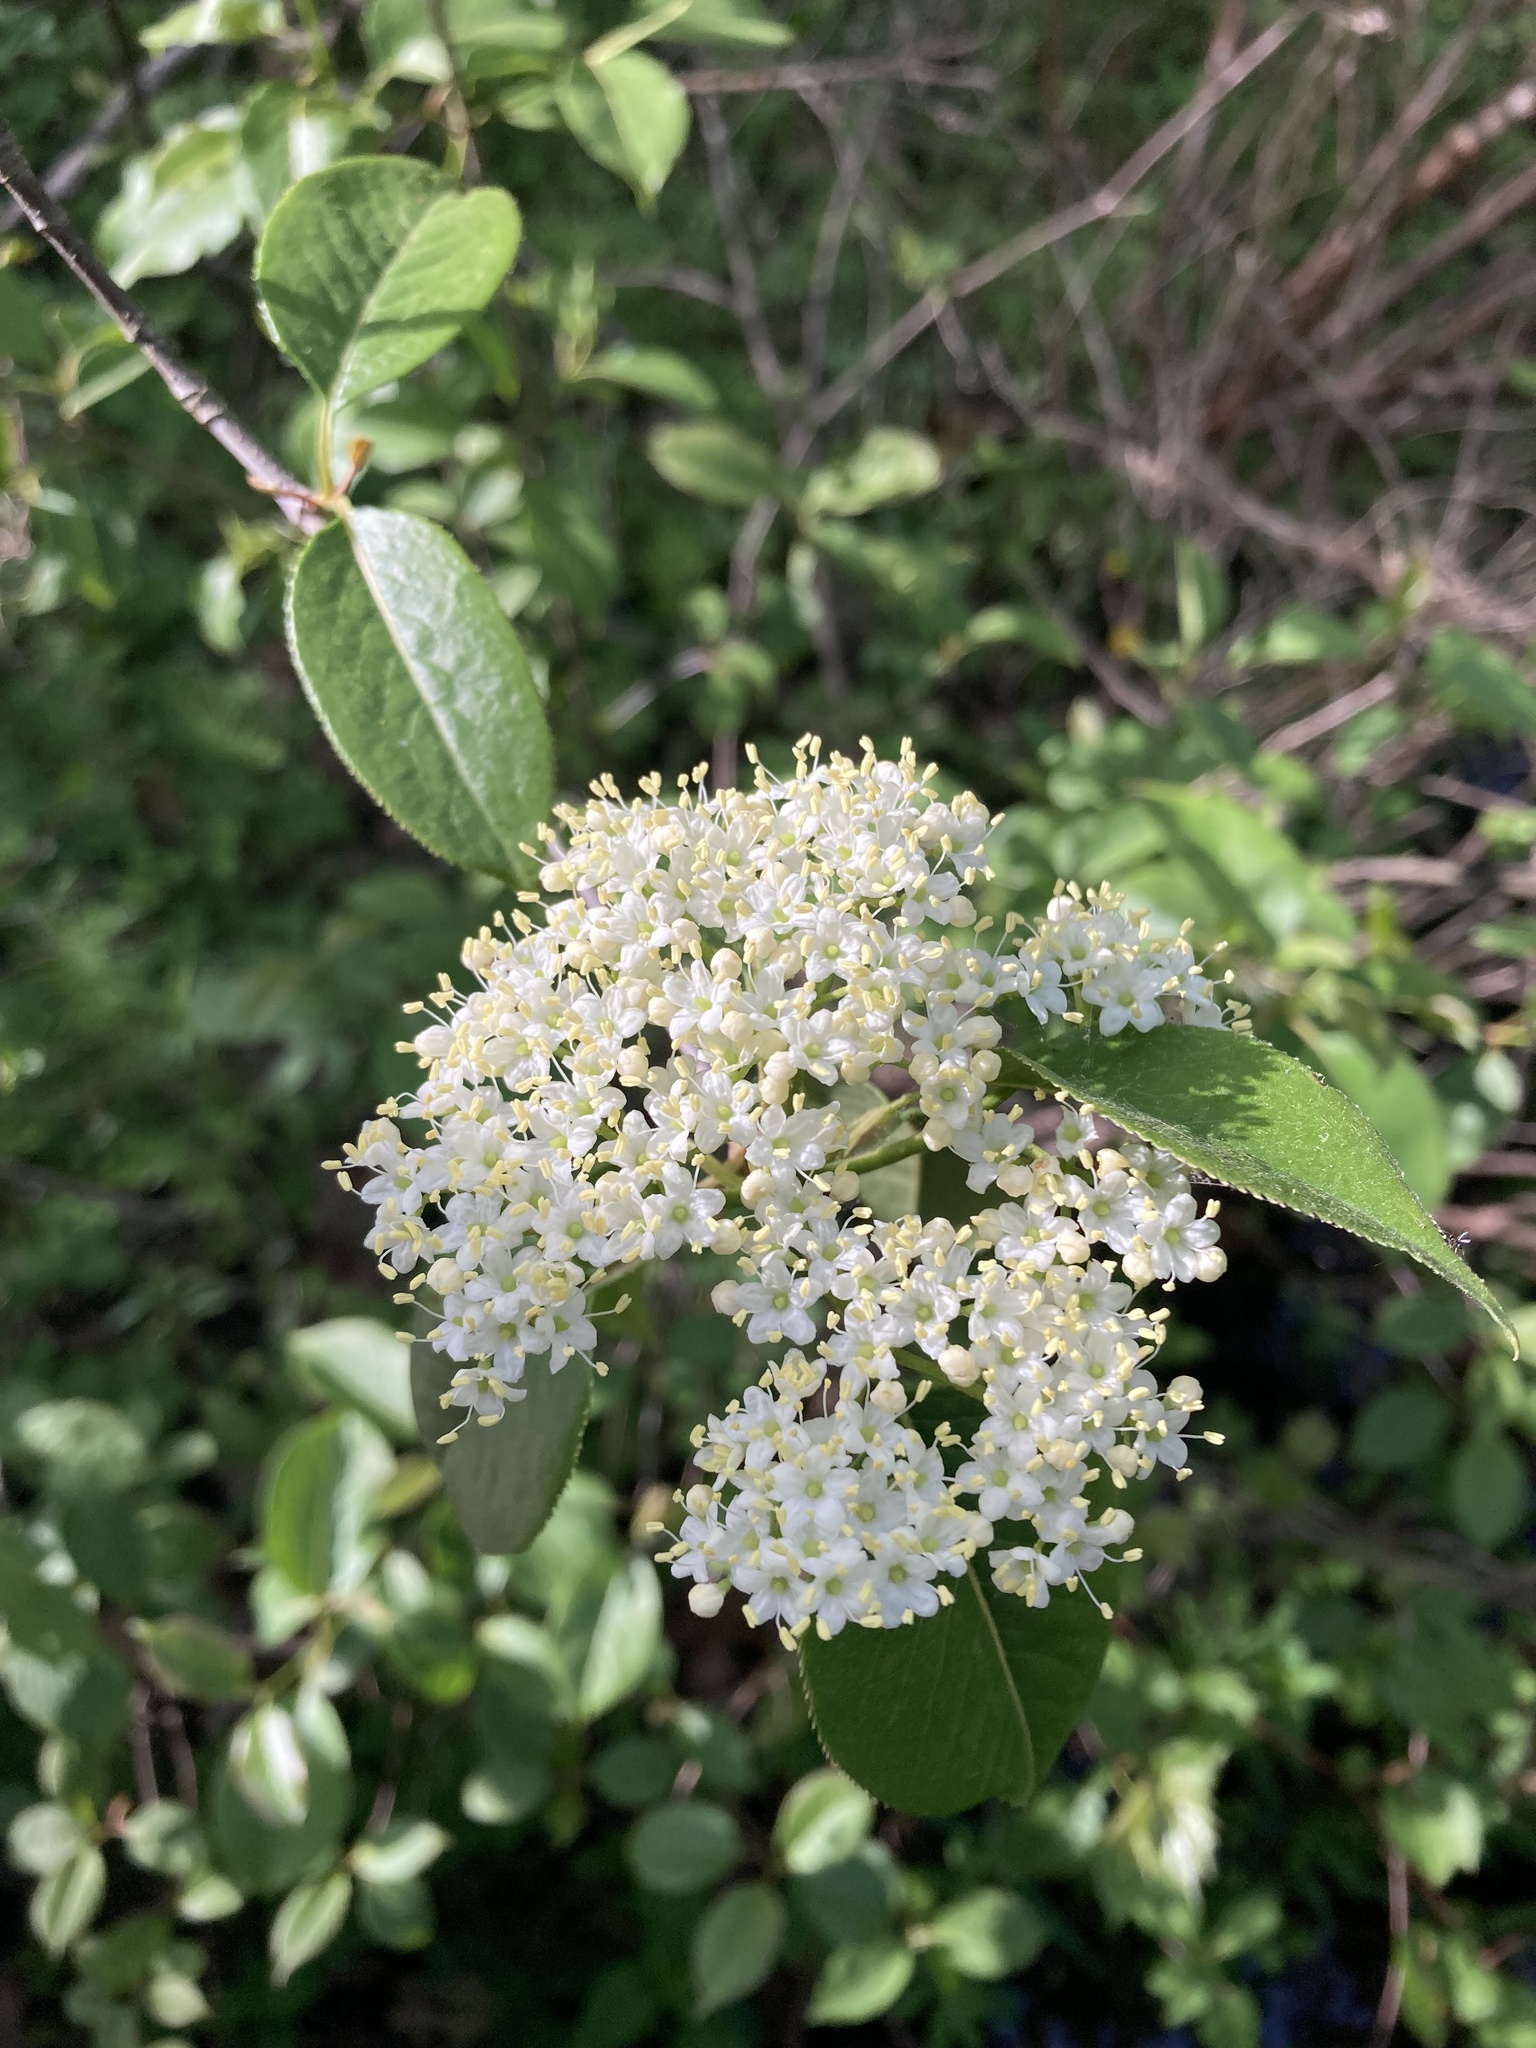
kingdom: Plantae
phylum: Tracheophyta
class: Magnoliopsida
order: Dipsacales
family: Viburnaceae
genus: Viburnum
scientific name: Viburnum lentago
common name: Black haw
